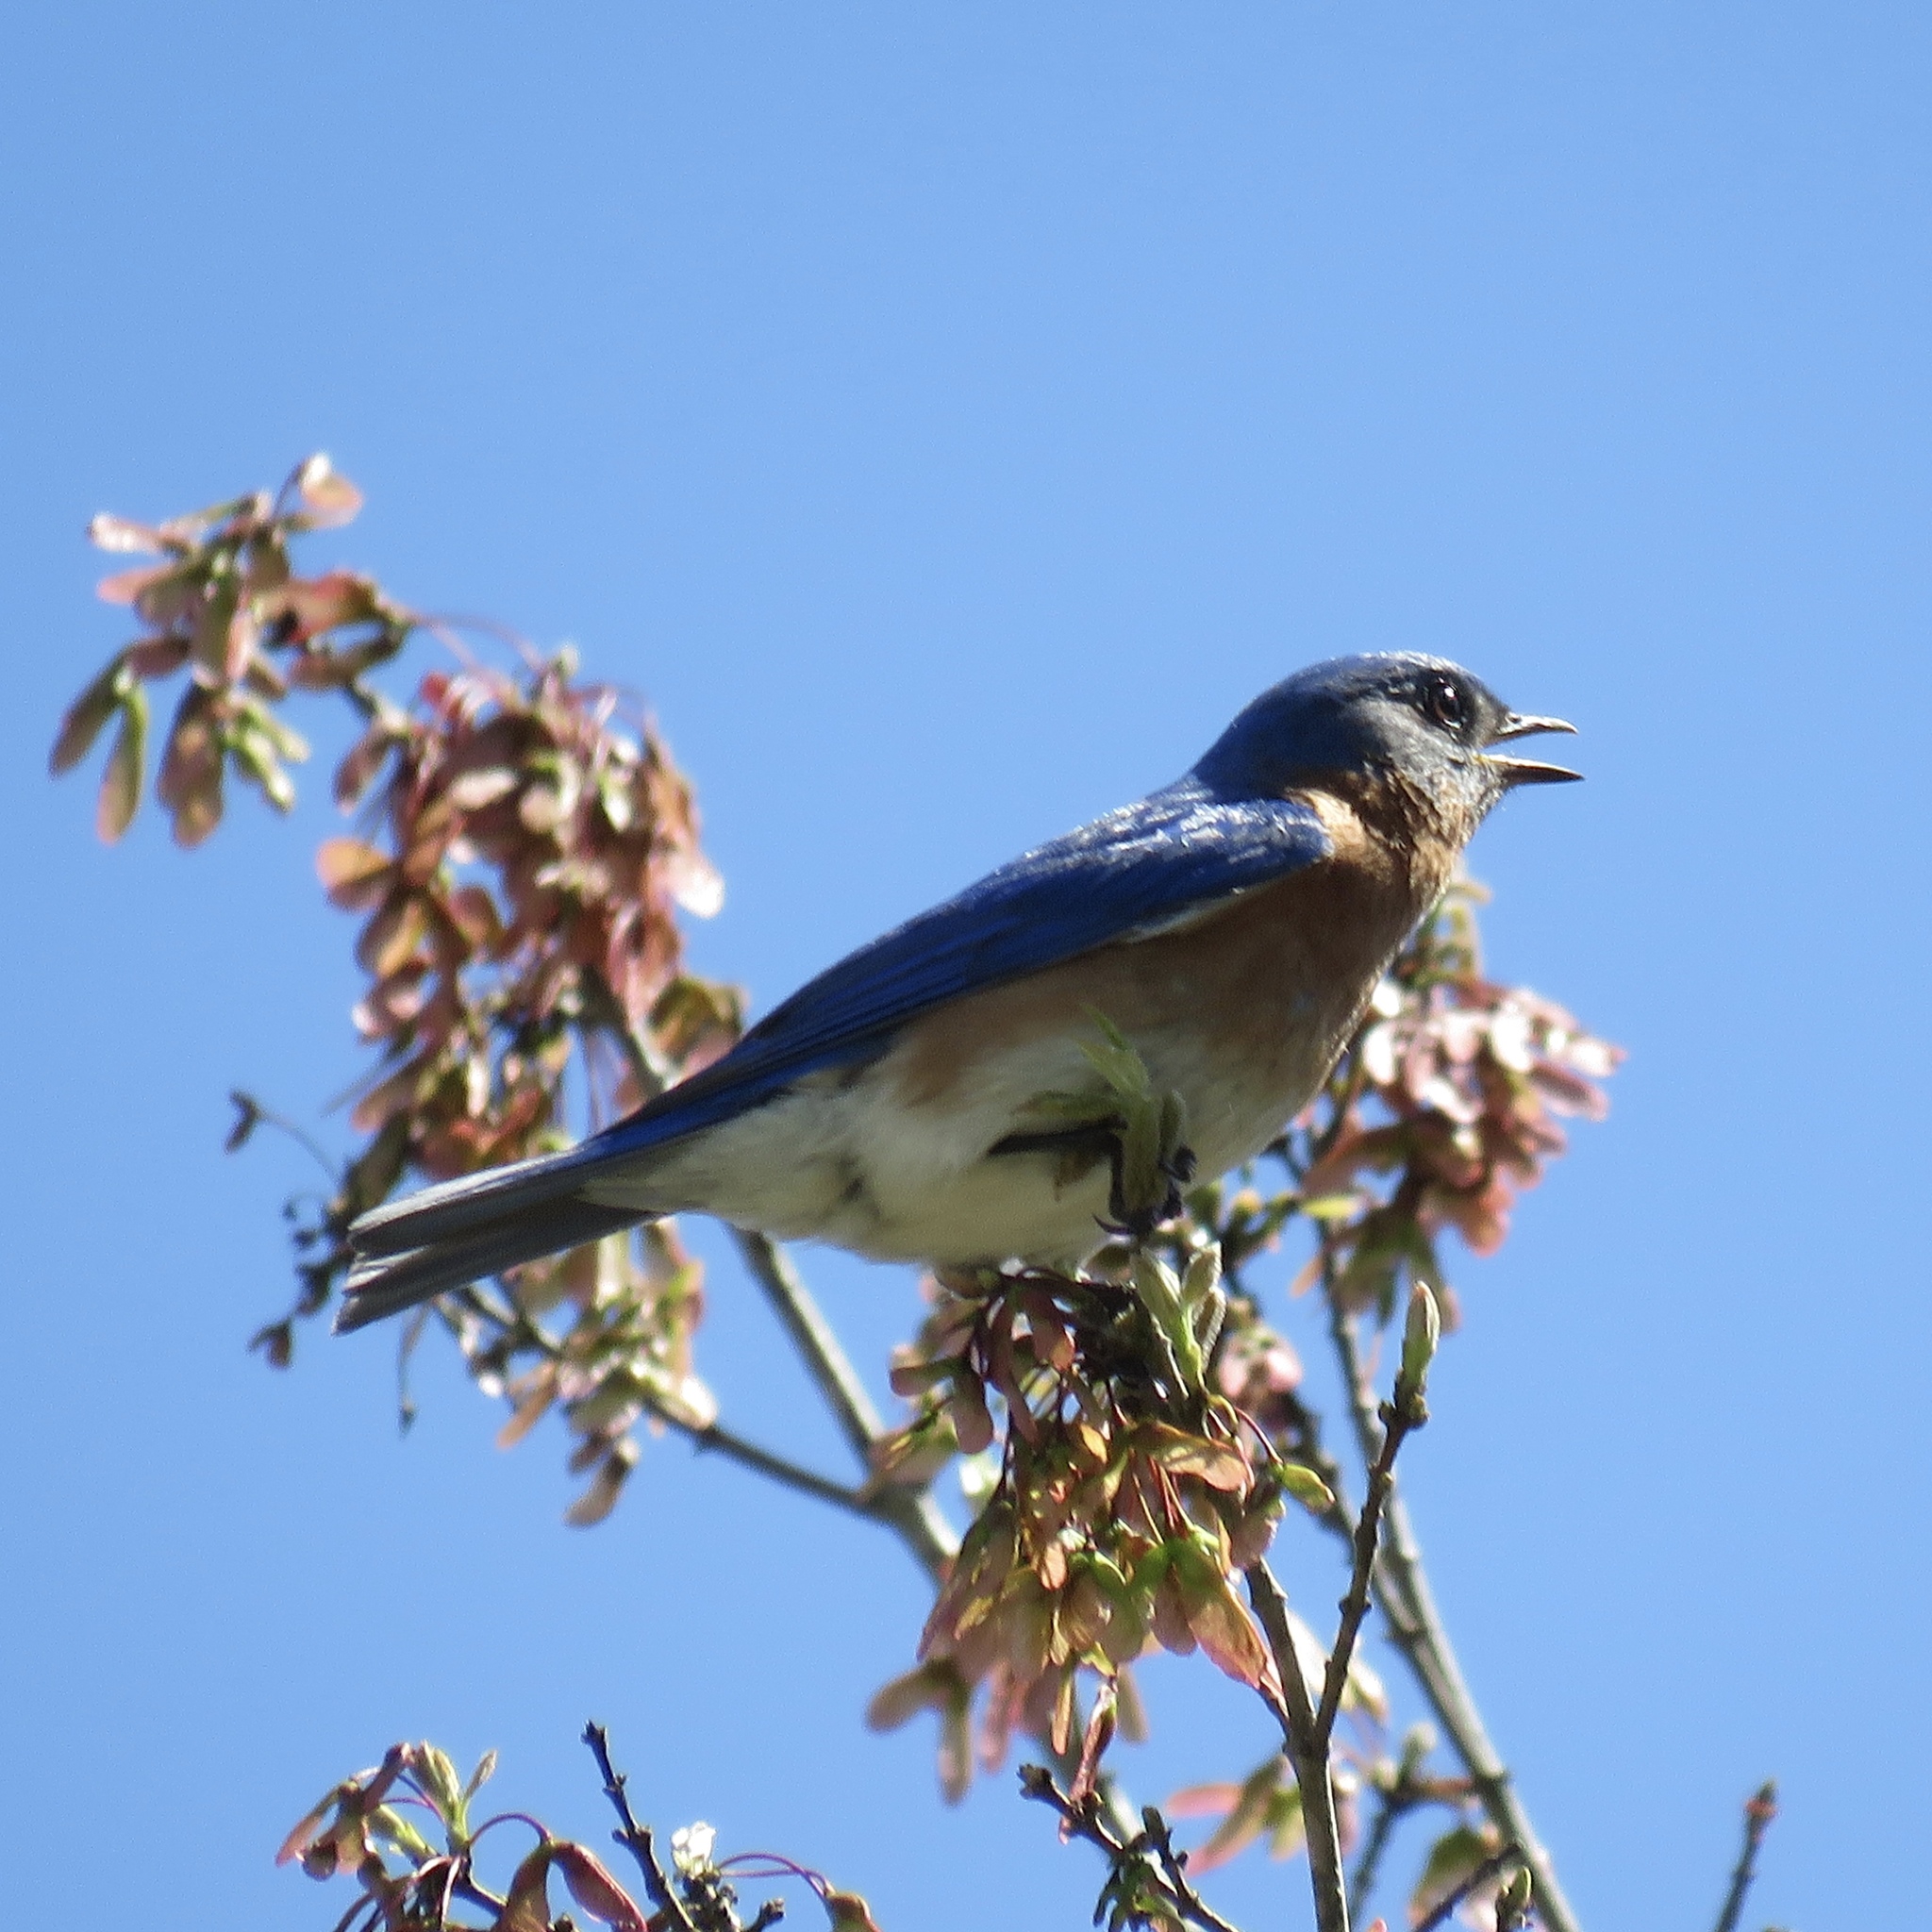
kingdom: Animalia
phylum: Chordata
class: Aves
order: Passeriformes
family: Turdidae
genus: Sialia
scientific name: Sialia sialis
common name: Eastern bluebird
